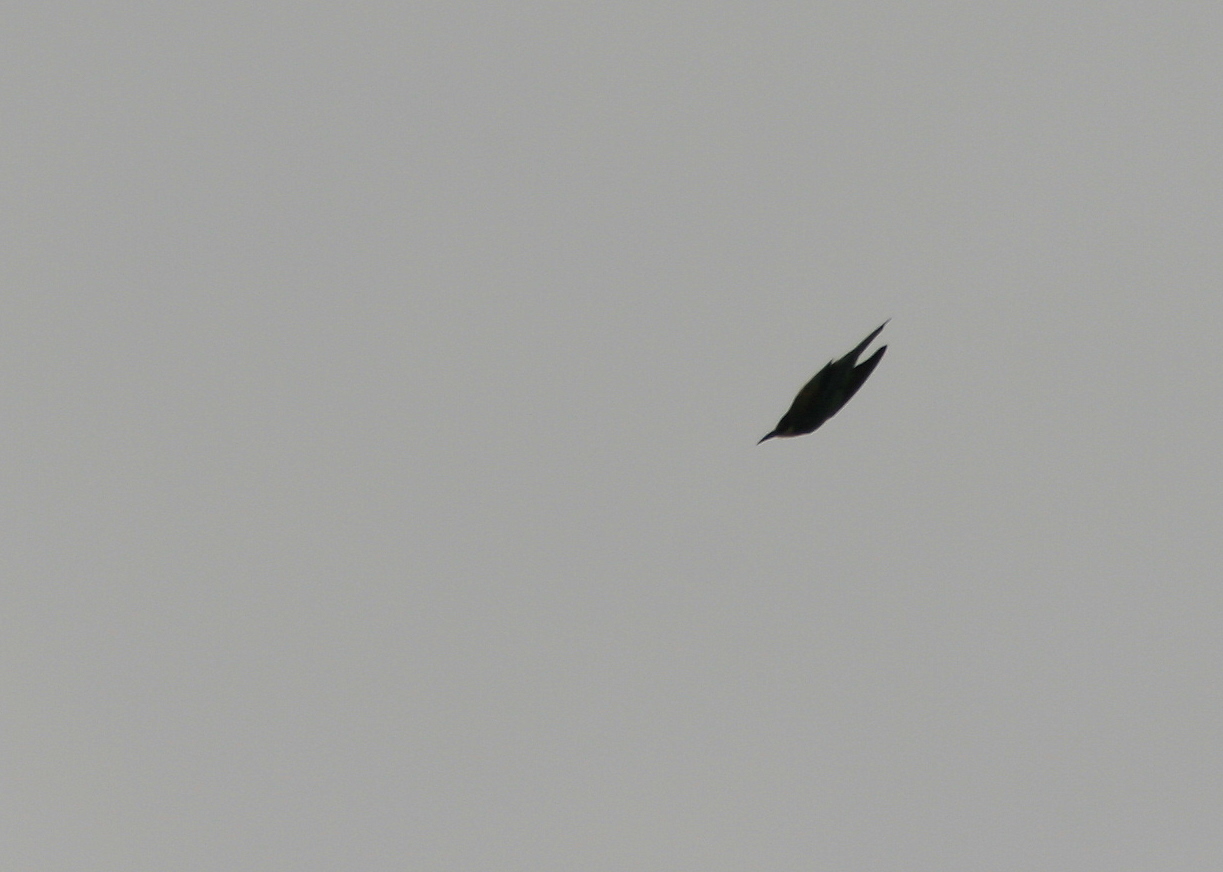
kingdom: Animalia
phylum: Chordata
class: Aves
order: Coraciiformes
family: Meropidae
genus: Merops
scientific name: Merops apiaster
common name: European bee-eater
